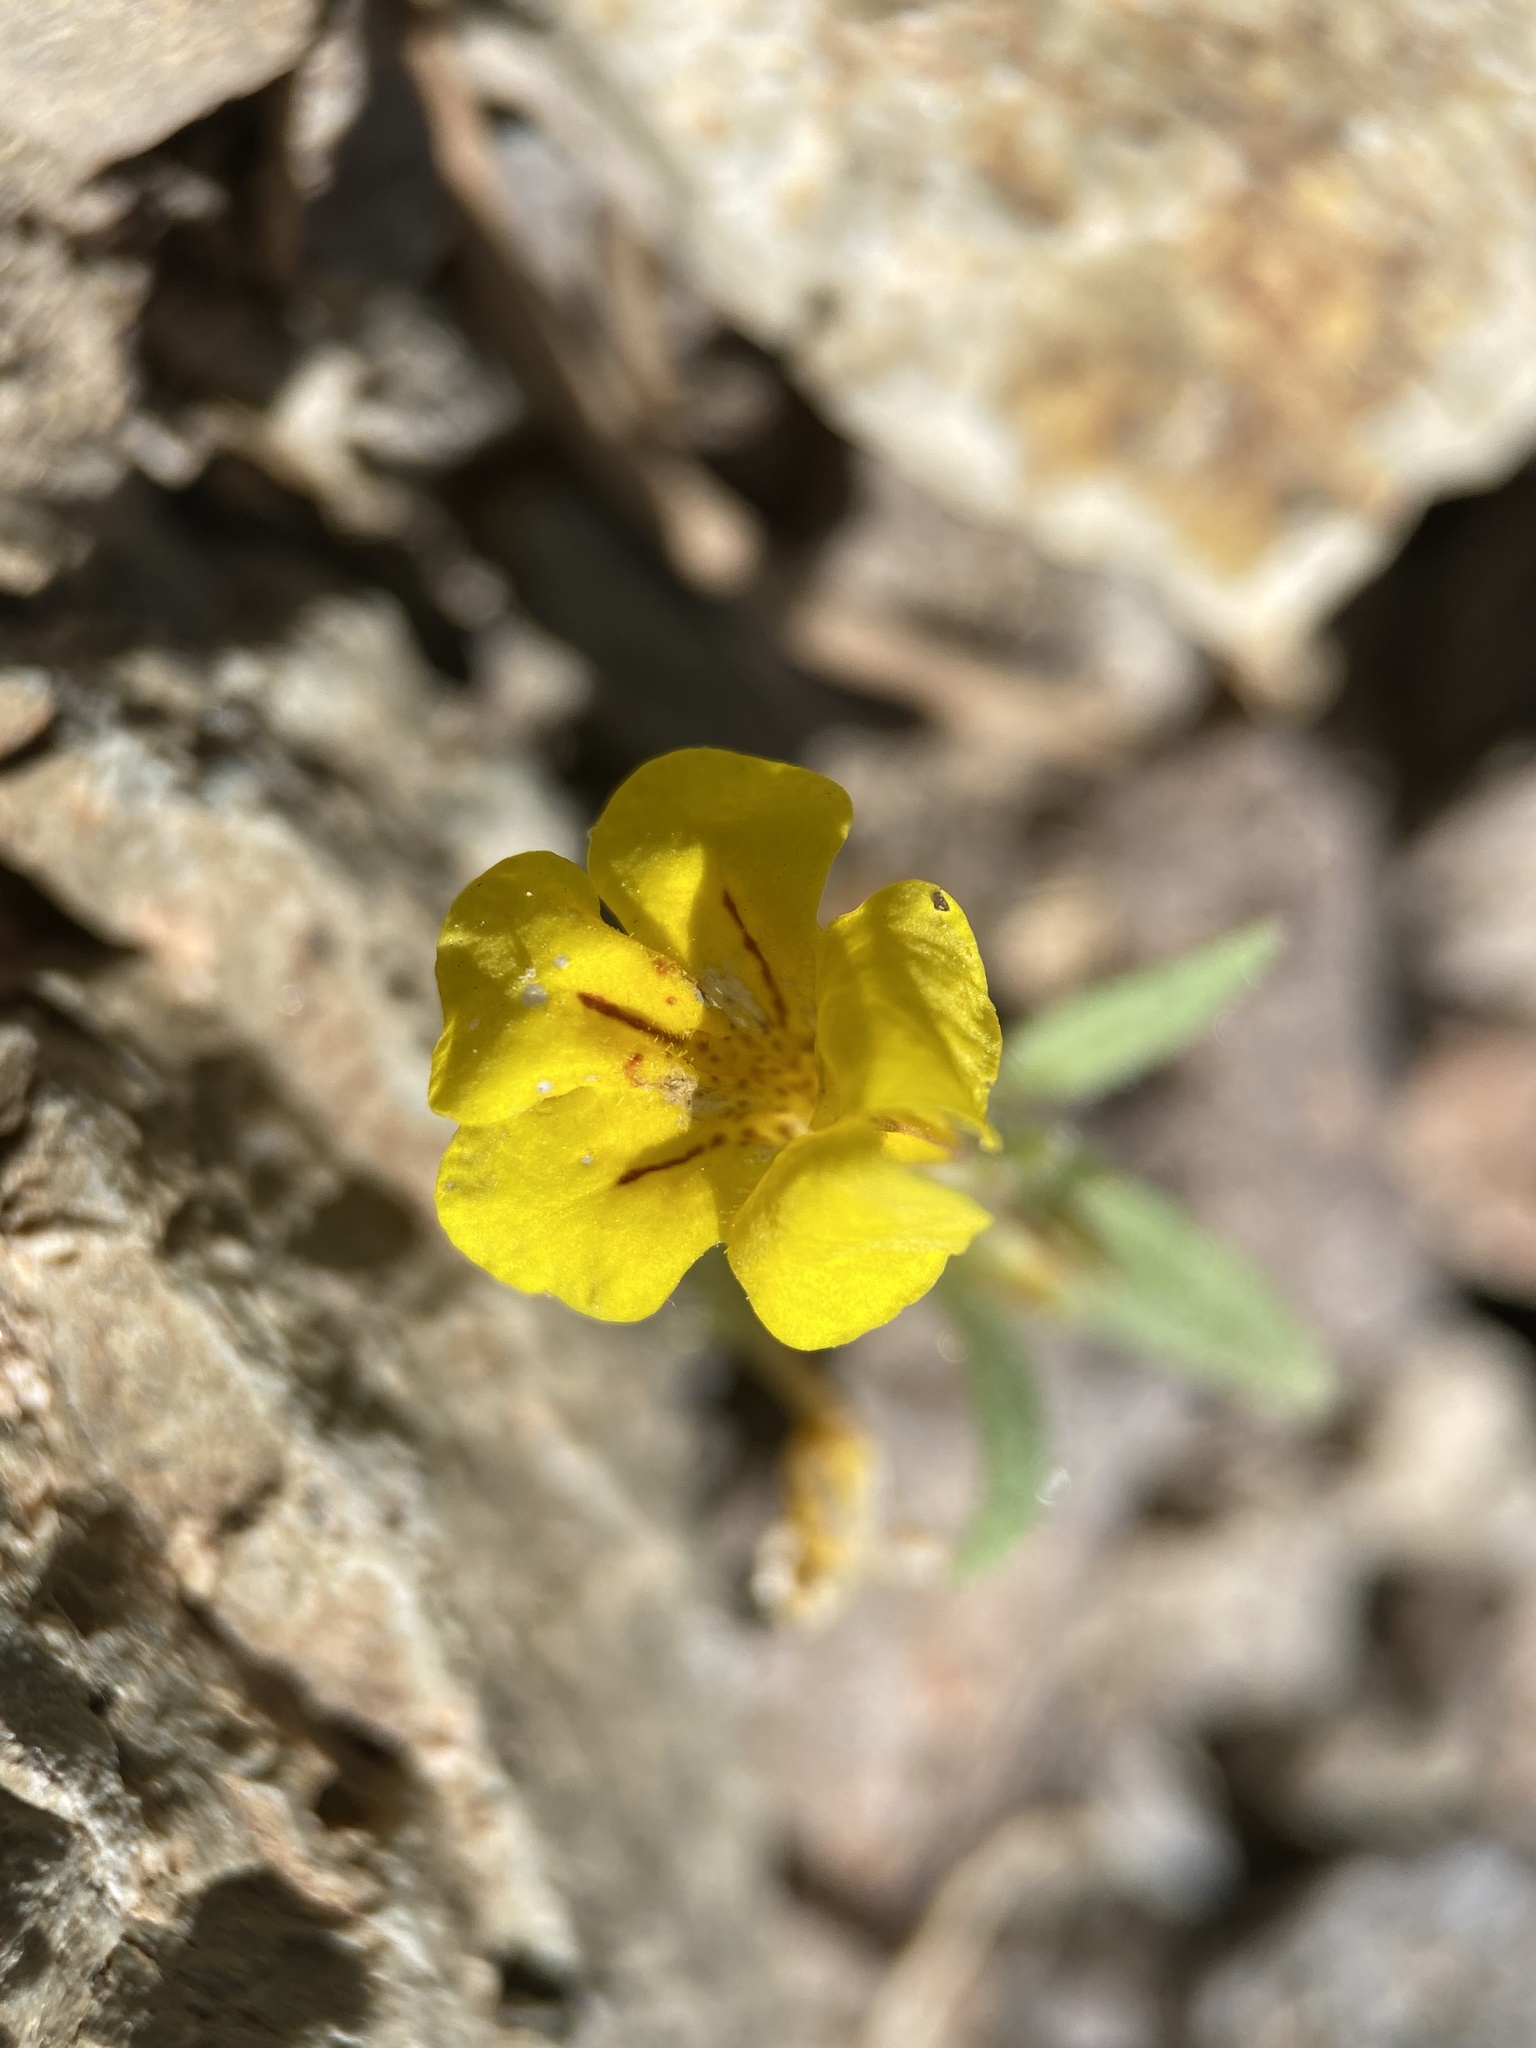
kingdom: Plantae
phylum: Tracheophyta
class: Magnoliopsida
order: Lamiales
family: Phrymaceae
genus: Diplacus
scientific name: Diplacus mephiticus
